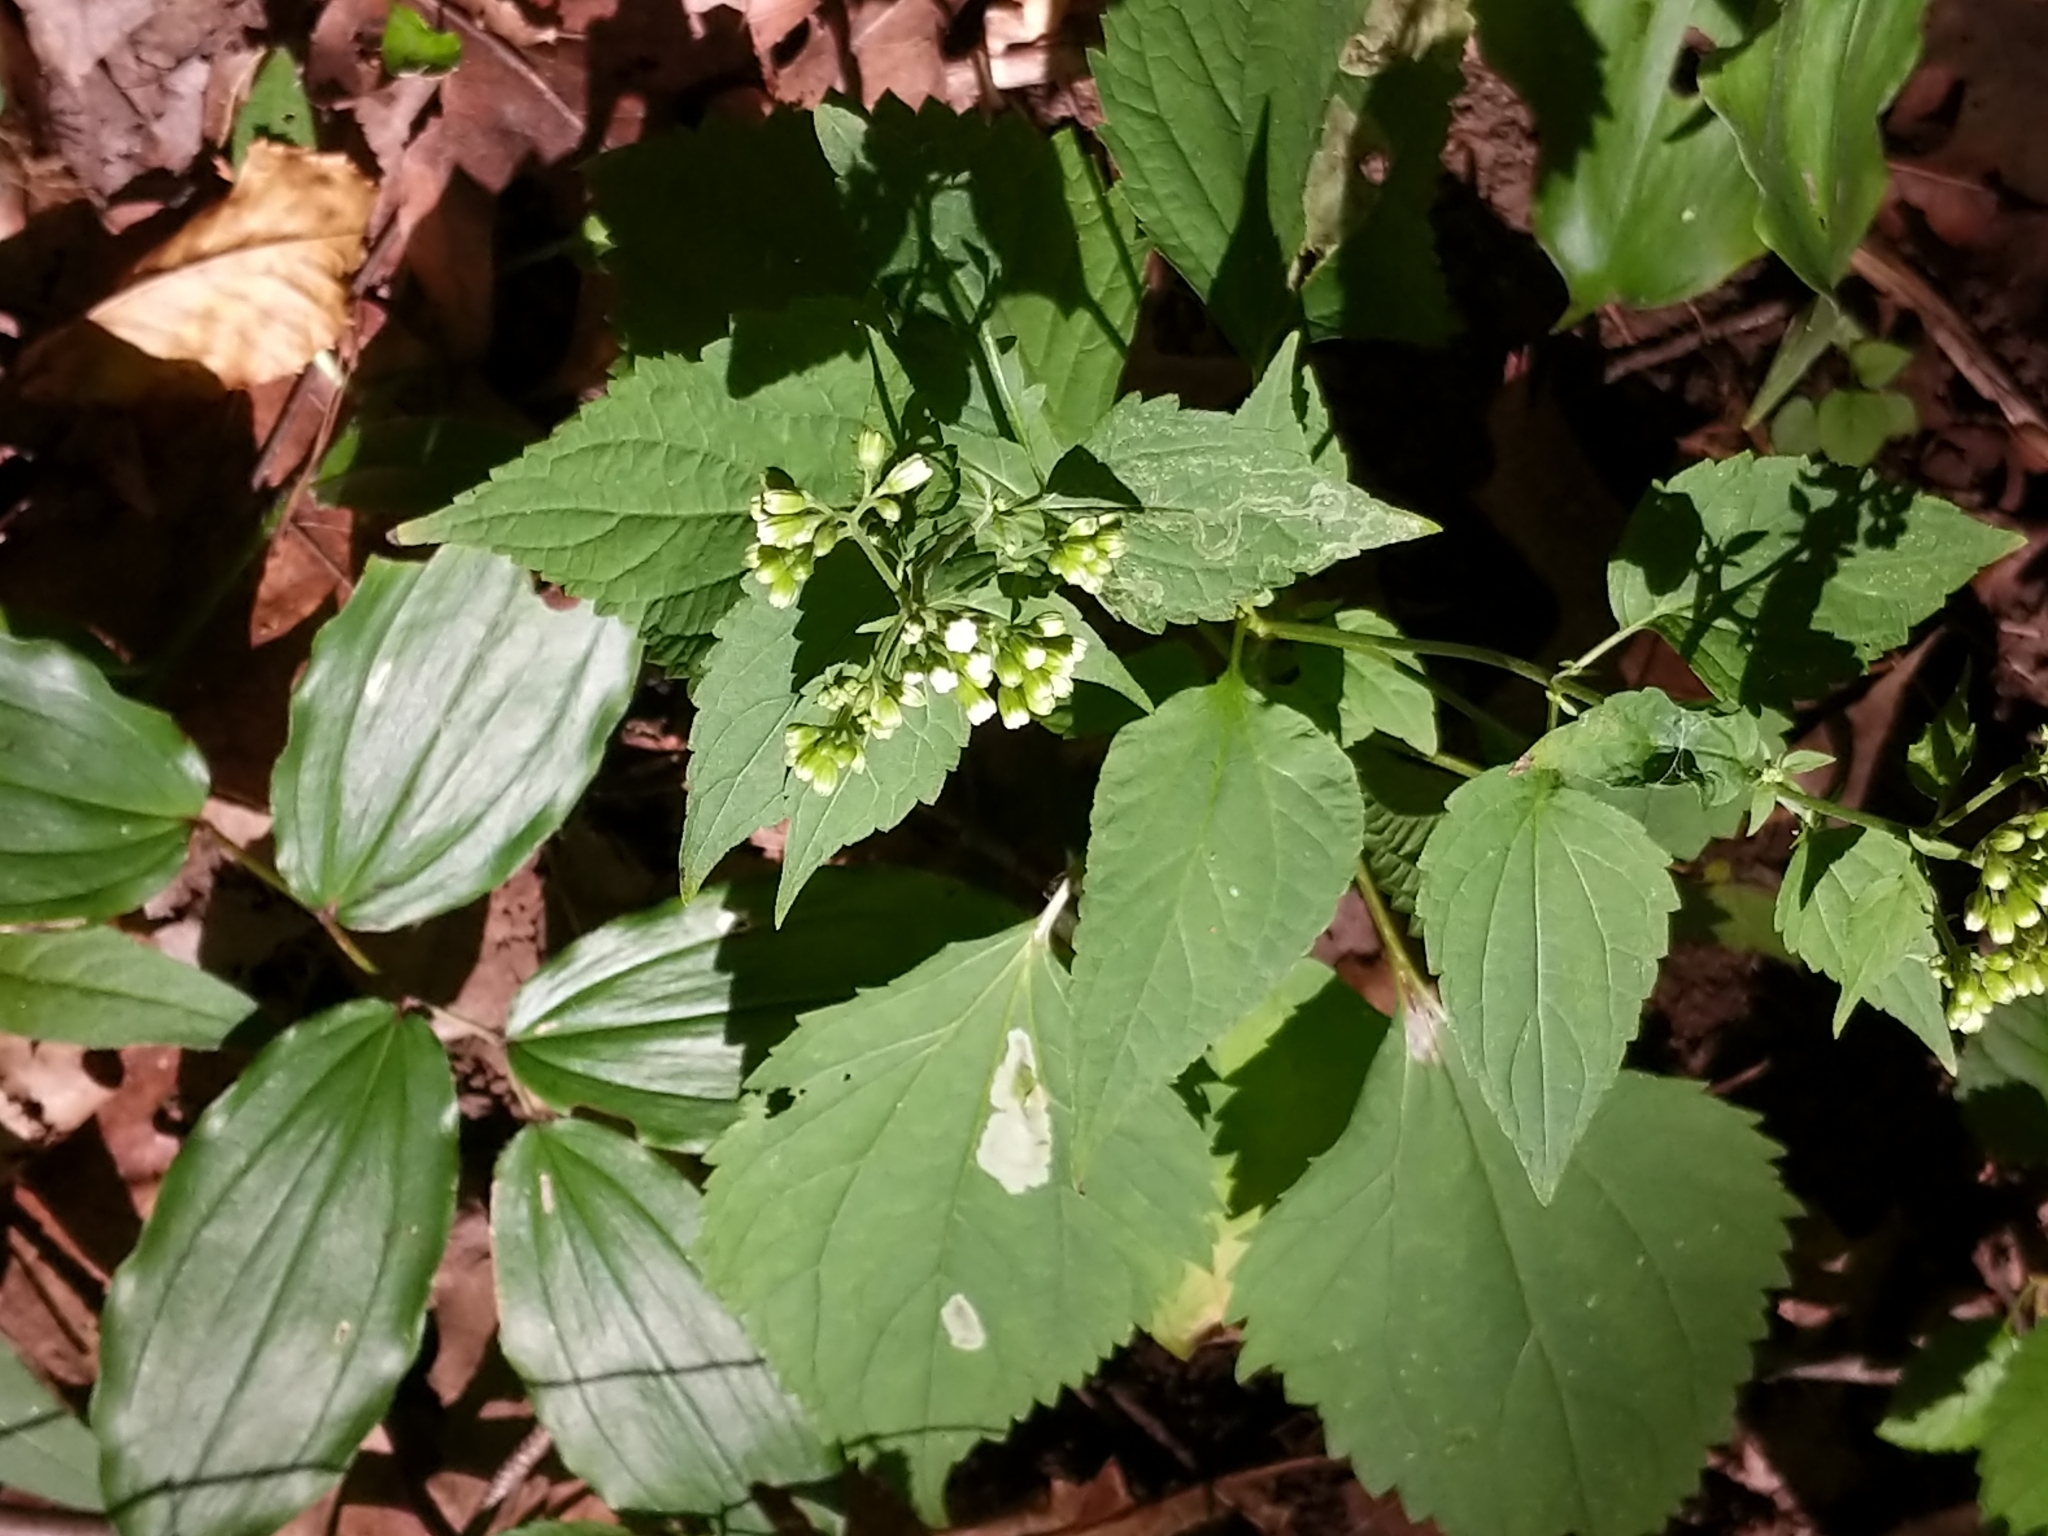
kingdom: Plantae
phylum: Tracheophyta
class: Magnoliopsida
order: Asterales
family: Asteraceae
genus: Ageratina
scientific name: Ageratina altissima
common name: White snakeroot
